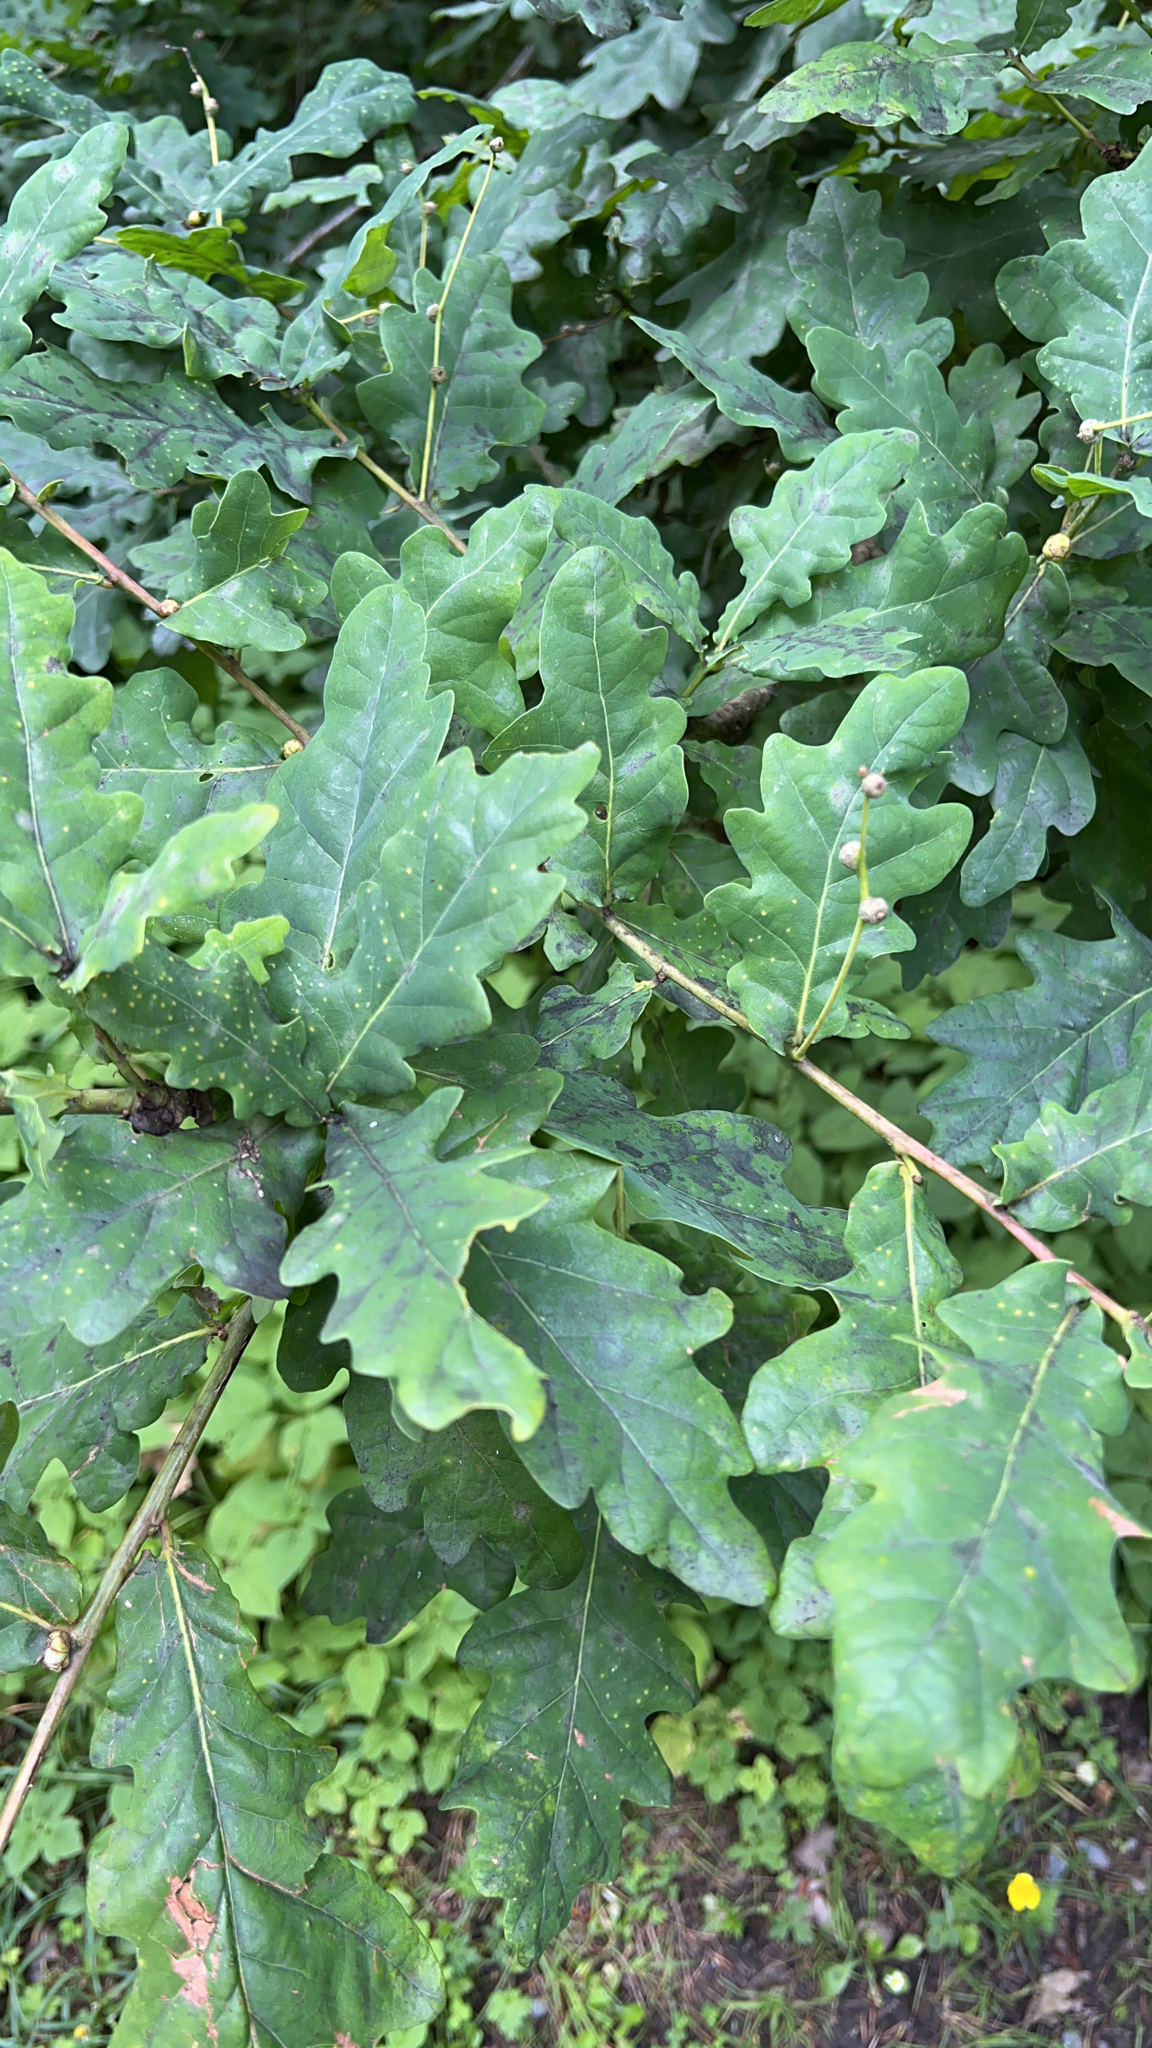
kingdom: Plantae
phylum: Tracheophyta
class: Magnoliopsida
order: Fagales
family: Fagaceae
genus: Quercus
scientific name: Quercus robur
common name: Pedunculate oak
